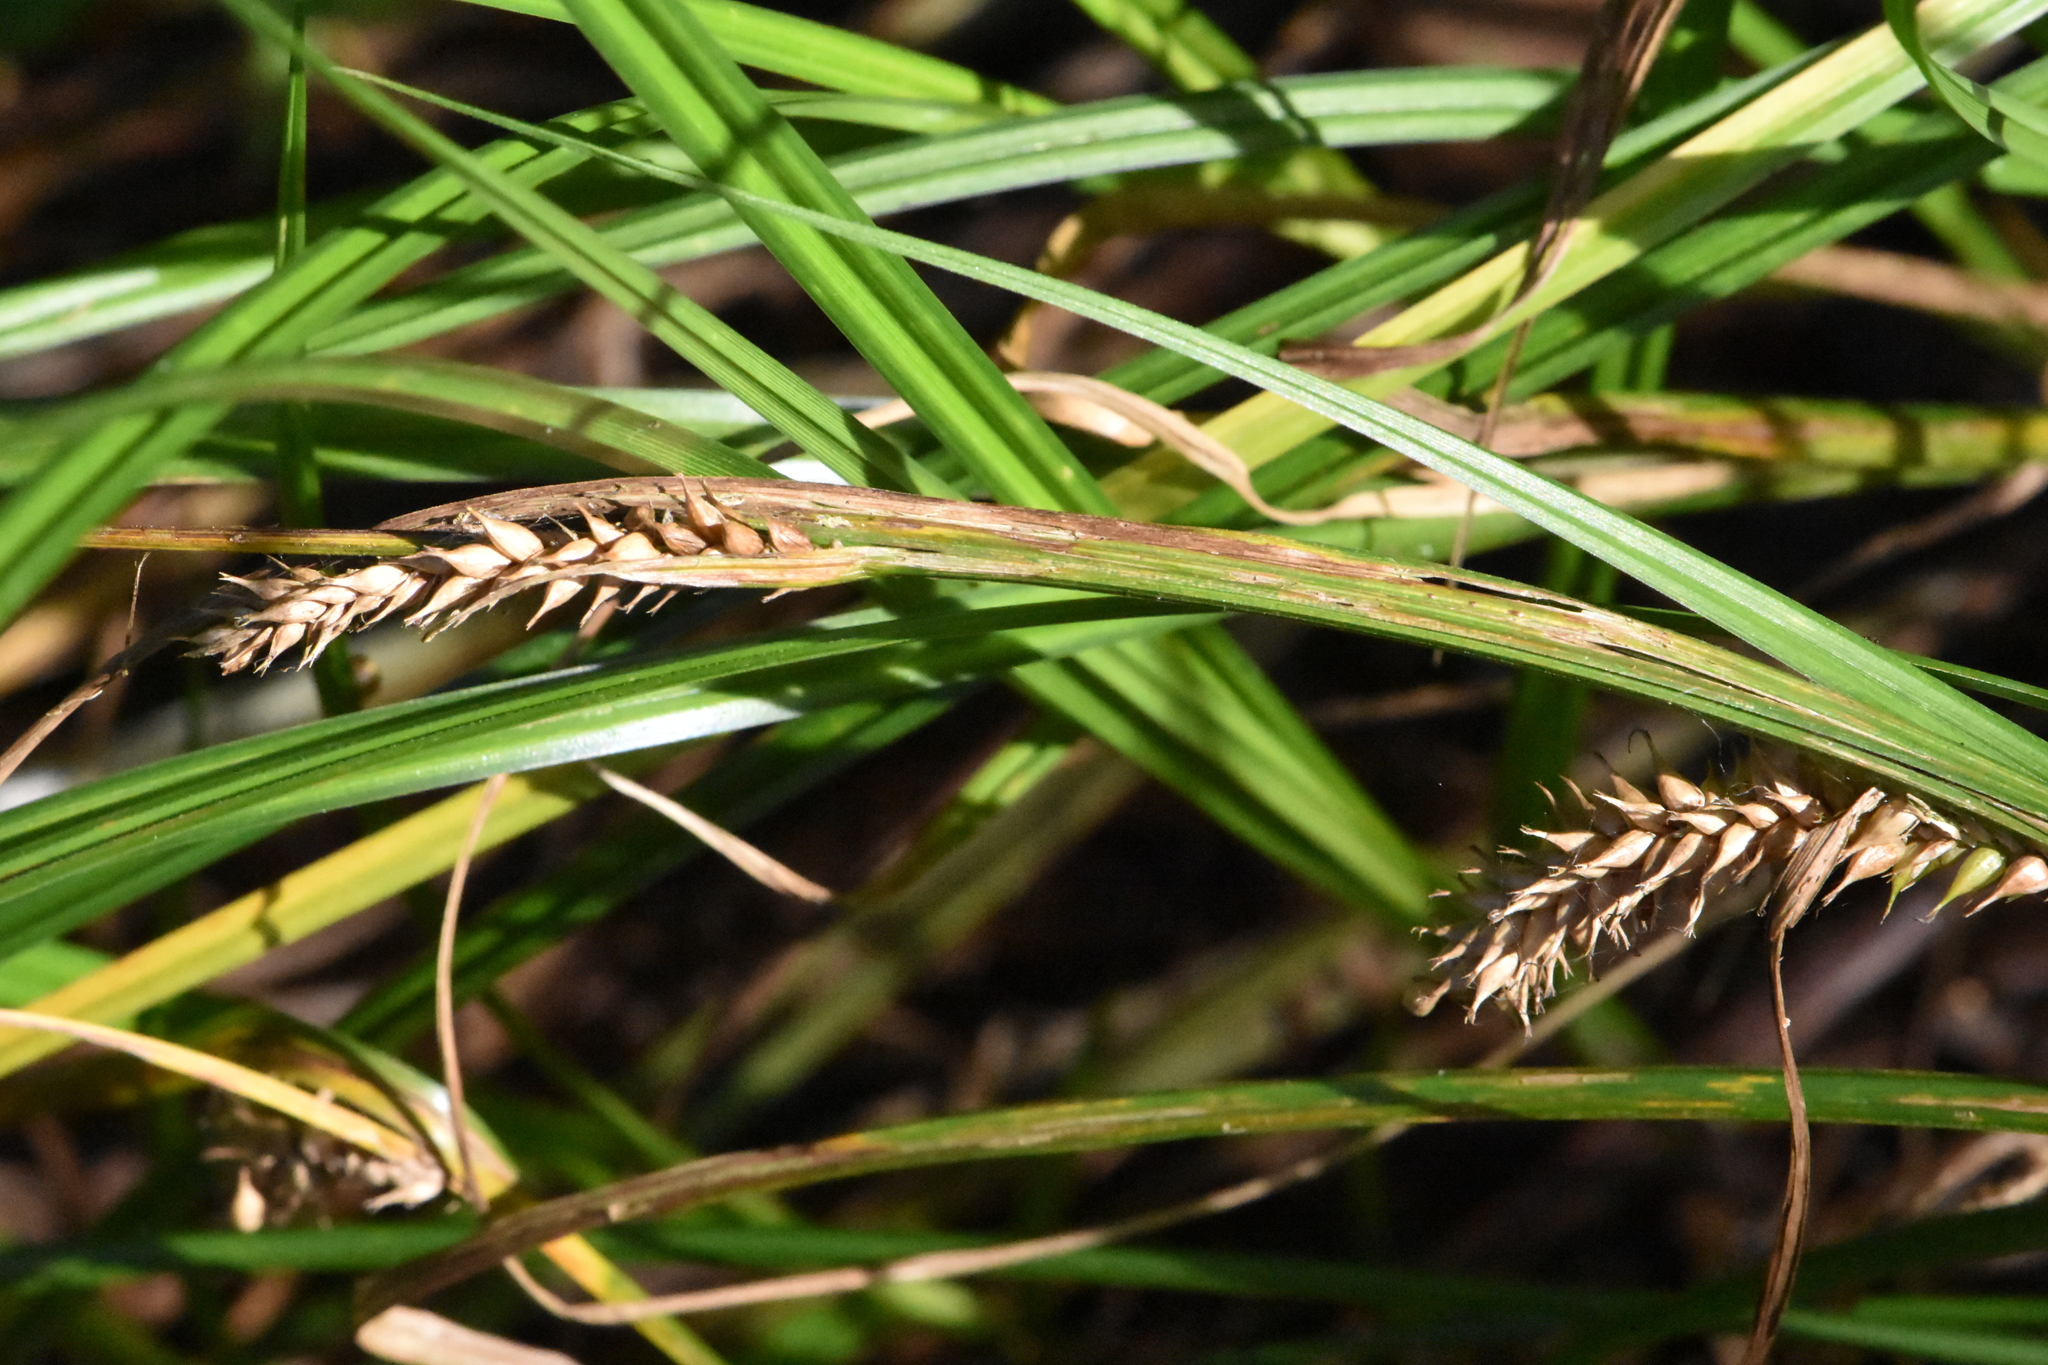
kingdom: Plantae
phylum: Tracheophyta
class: Liliopsida
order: Poales
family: Cyperaceae
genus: Carex
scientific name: Carex vesicaria
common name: Bladder-sedge
